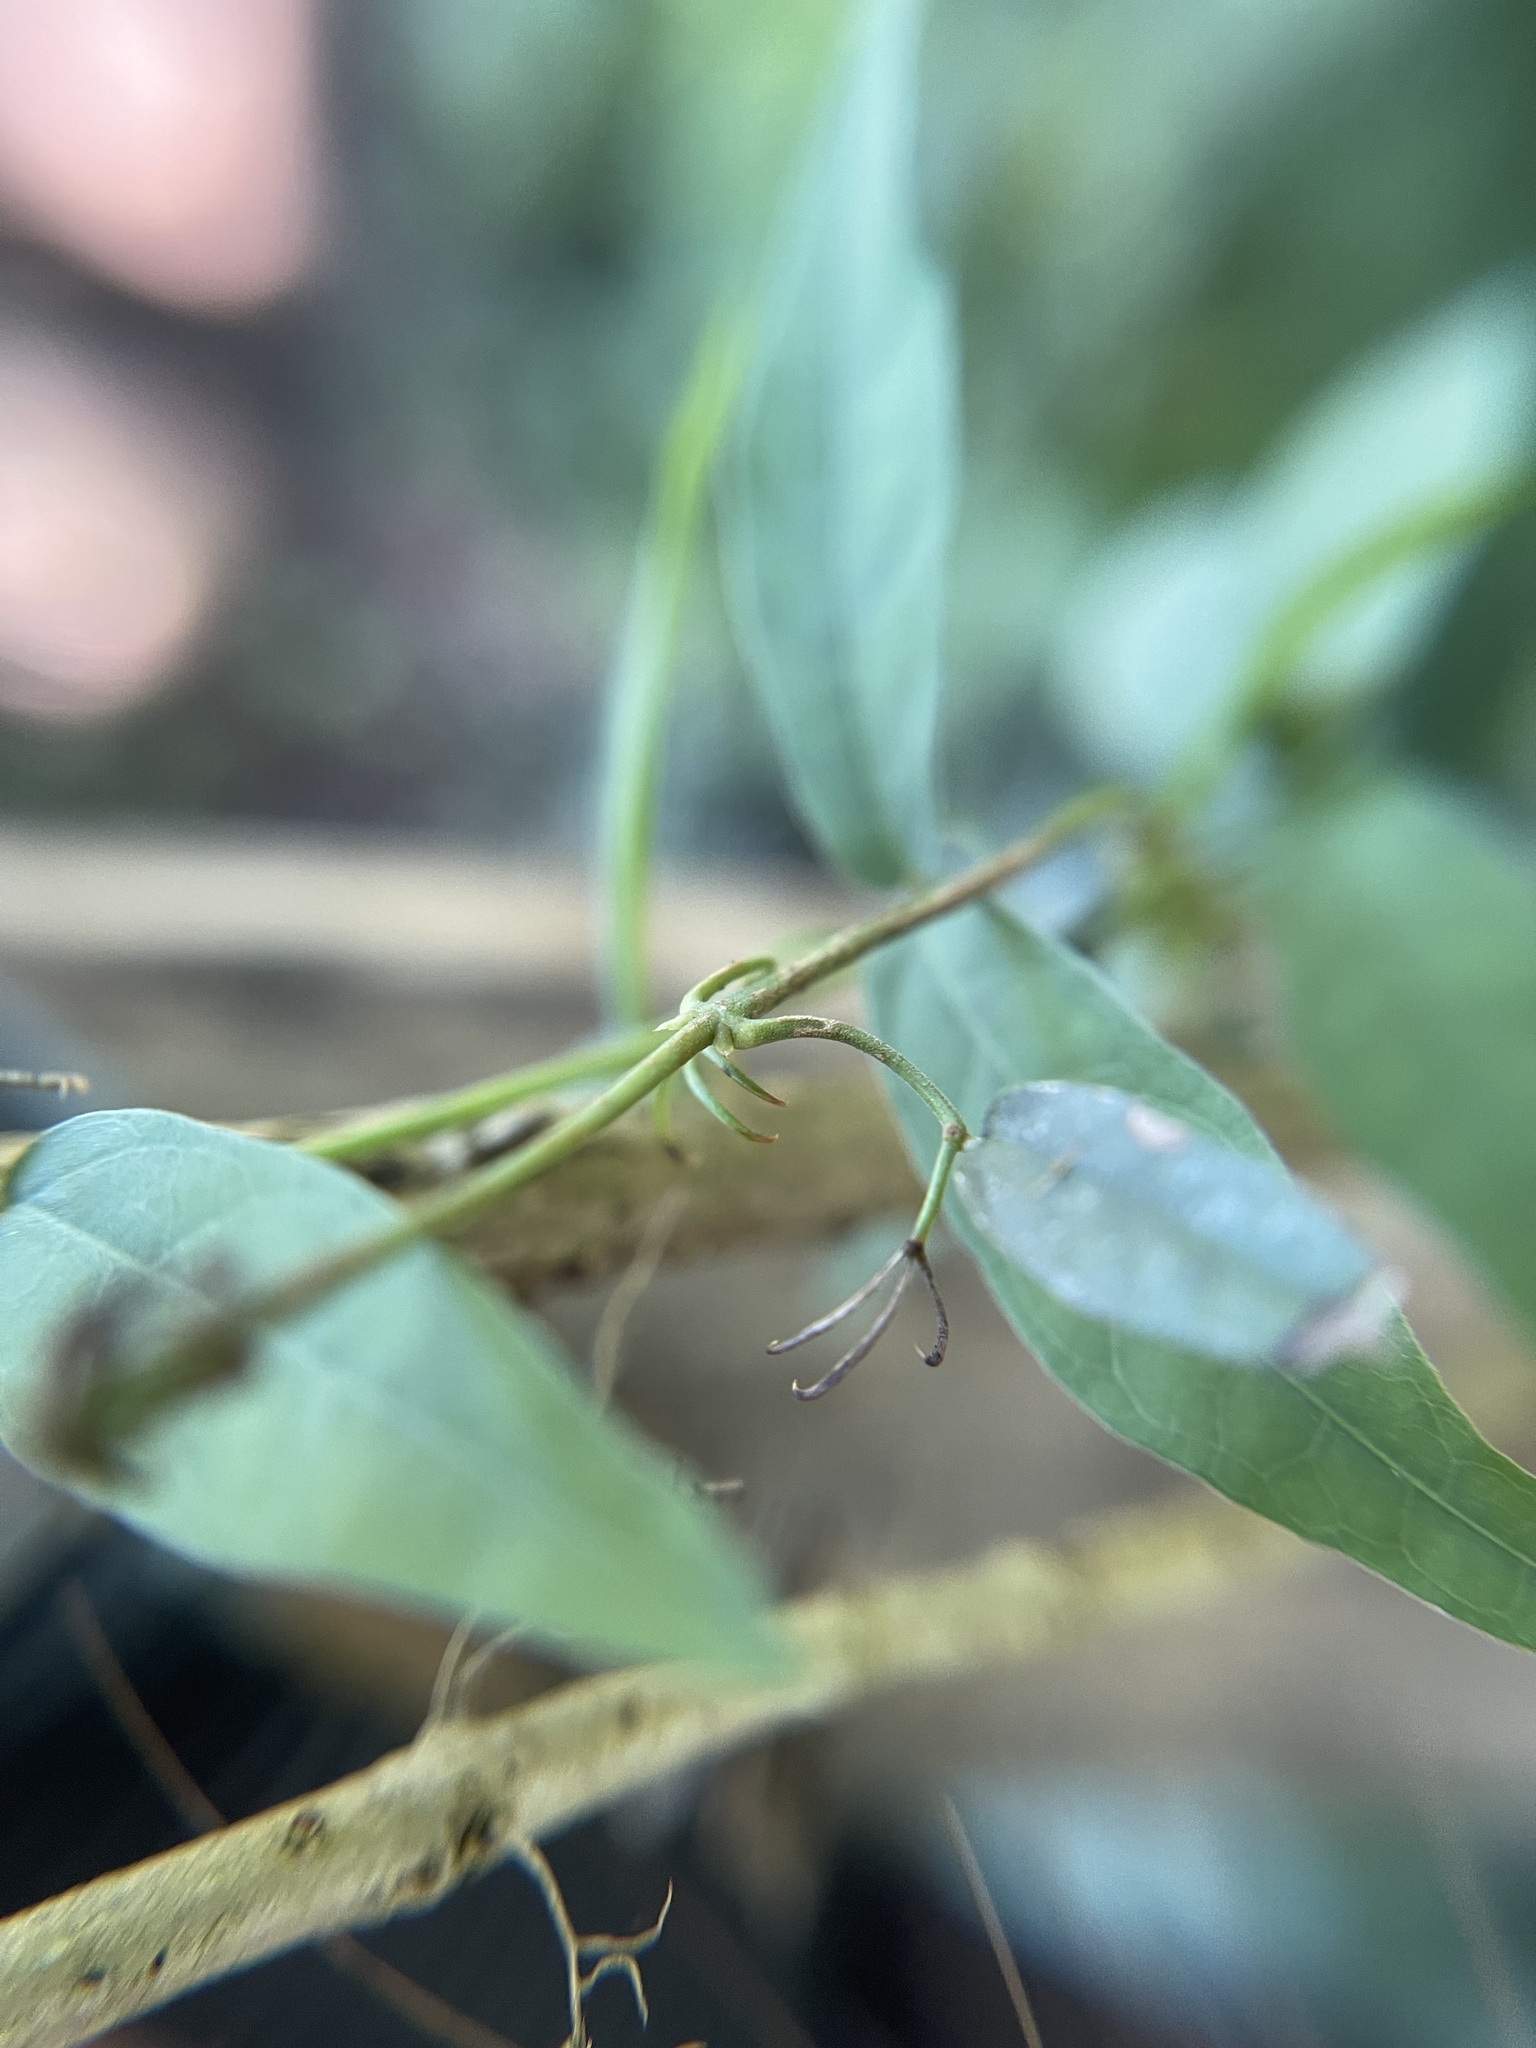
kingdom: Plantae
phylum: Tracheophyta
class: Magnoliopsida
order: Lamiales
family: Bignoniaceae
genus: Dolichandra
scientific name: Dolichandra unguis-cati
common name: Catclaw vine
